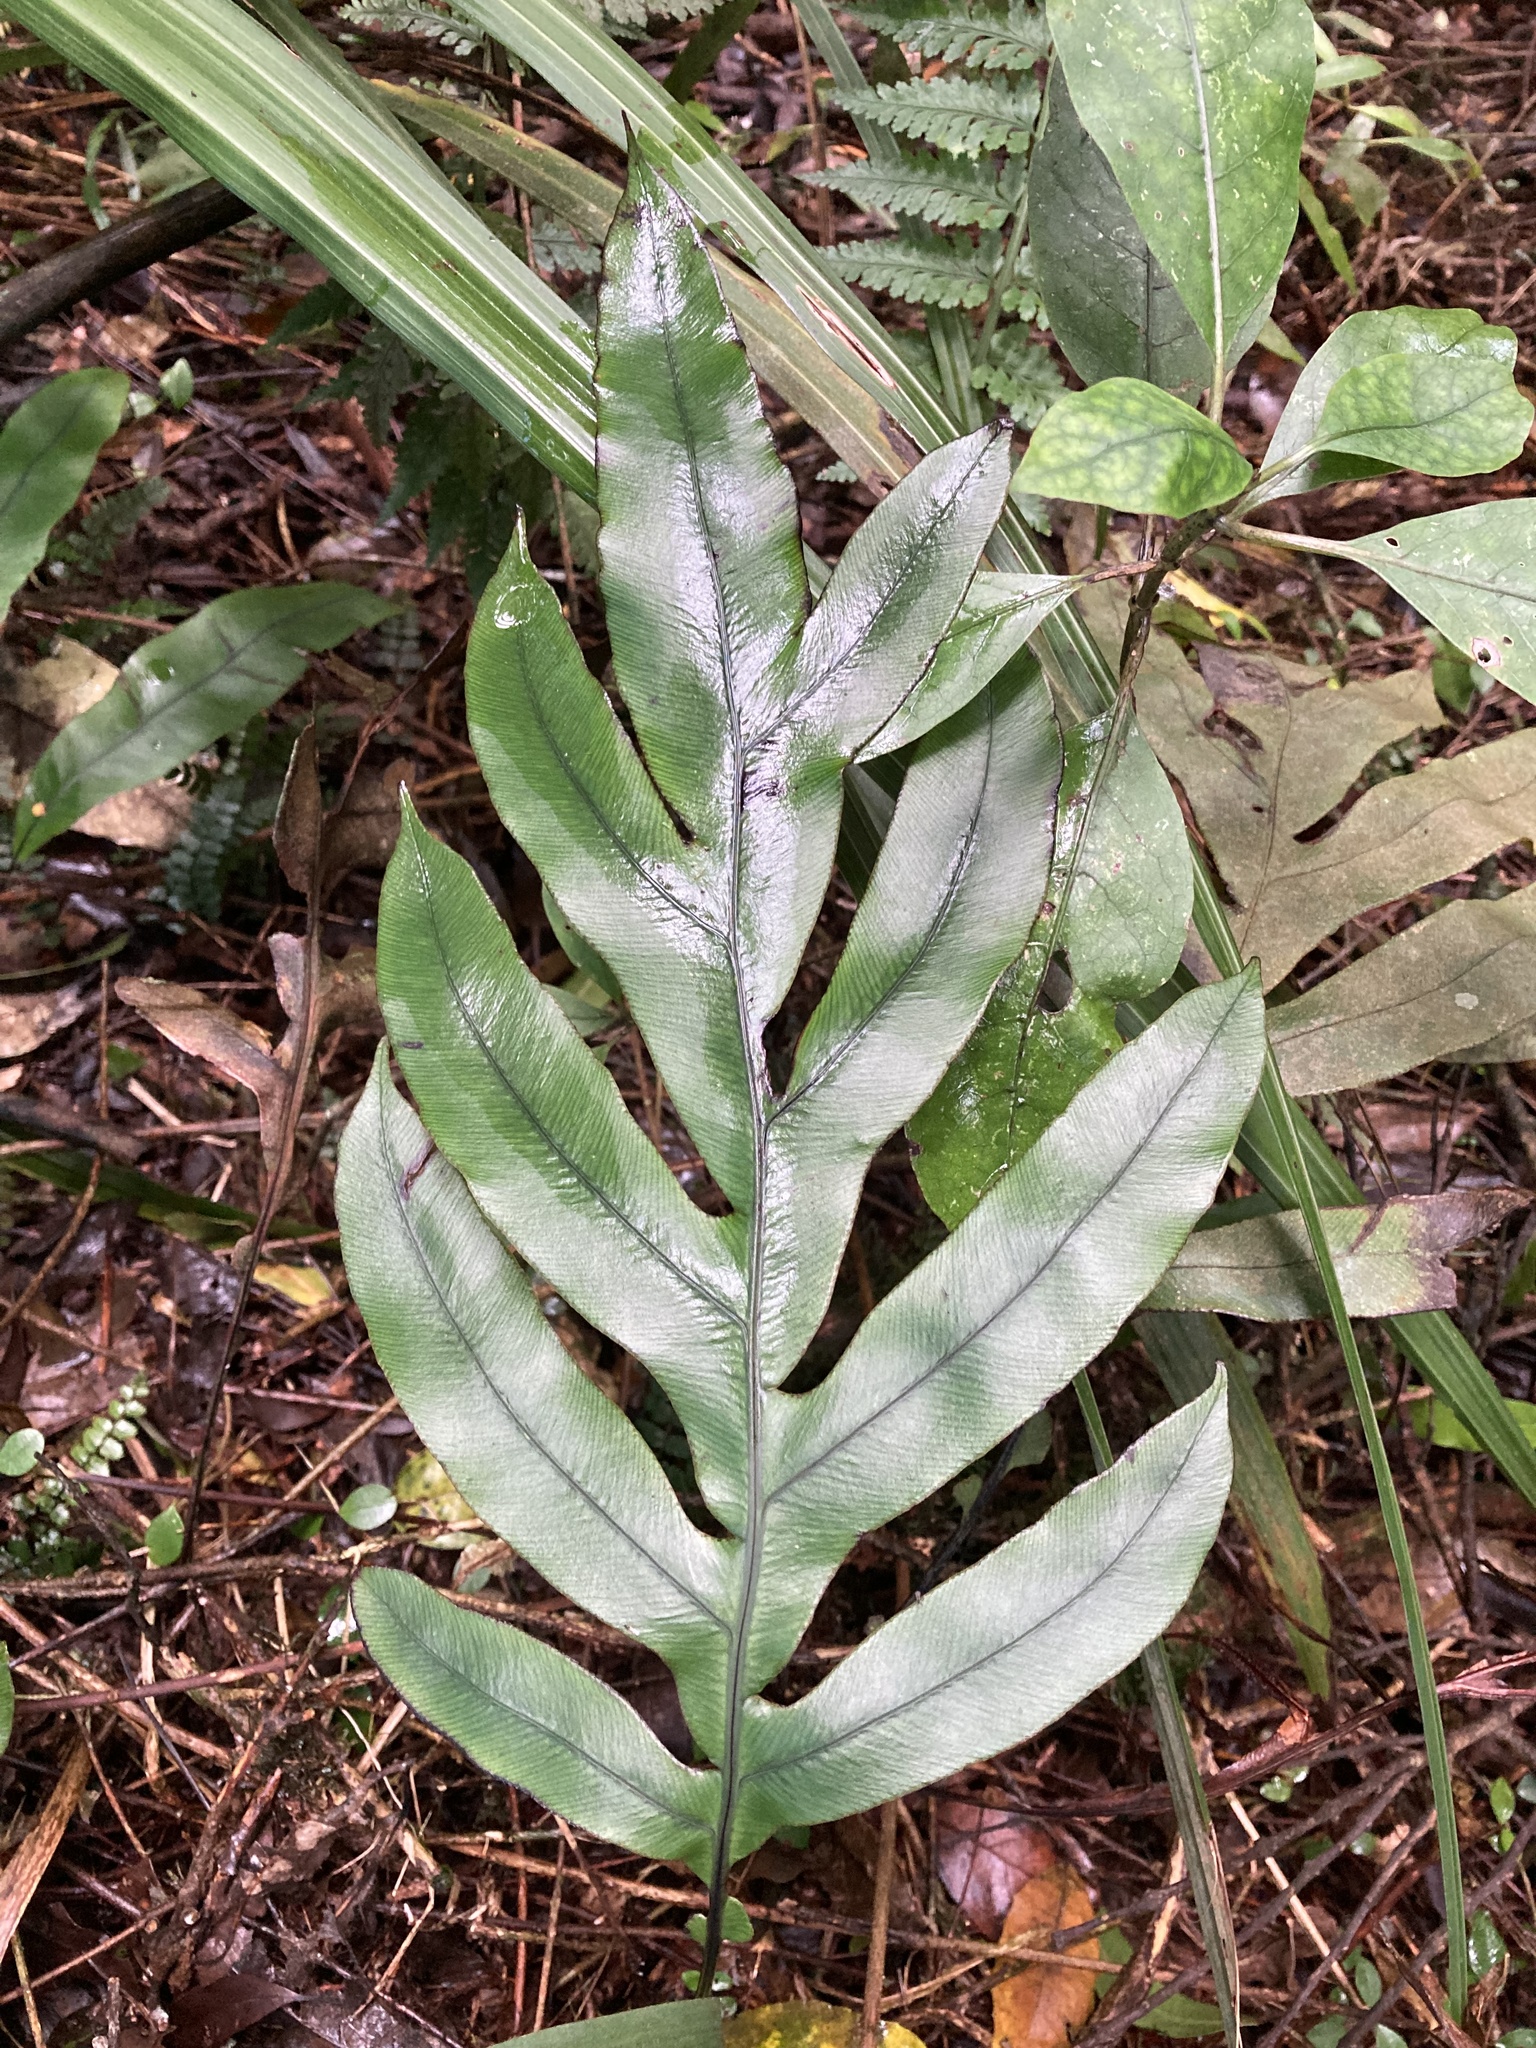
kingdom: Plantae
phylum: Tracheophyta
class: Polypodiopsida
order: Polypodiales
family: Blechnaceae
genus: Austroblechnum
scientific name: Austroblechnum colensoi
